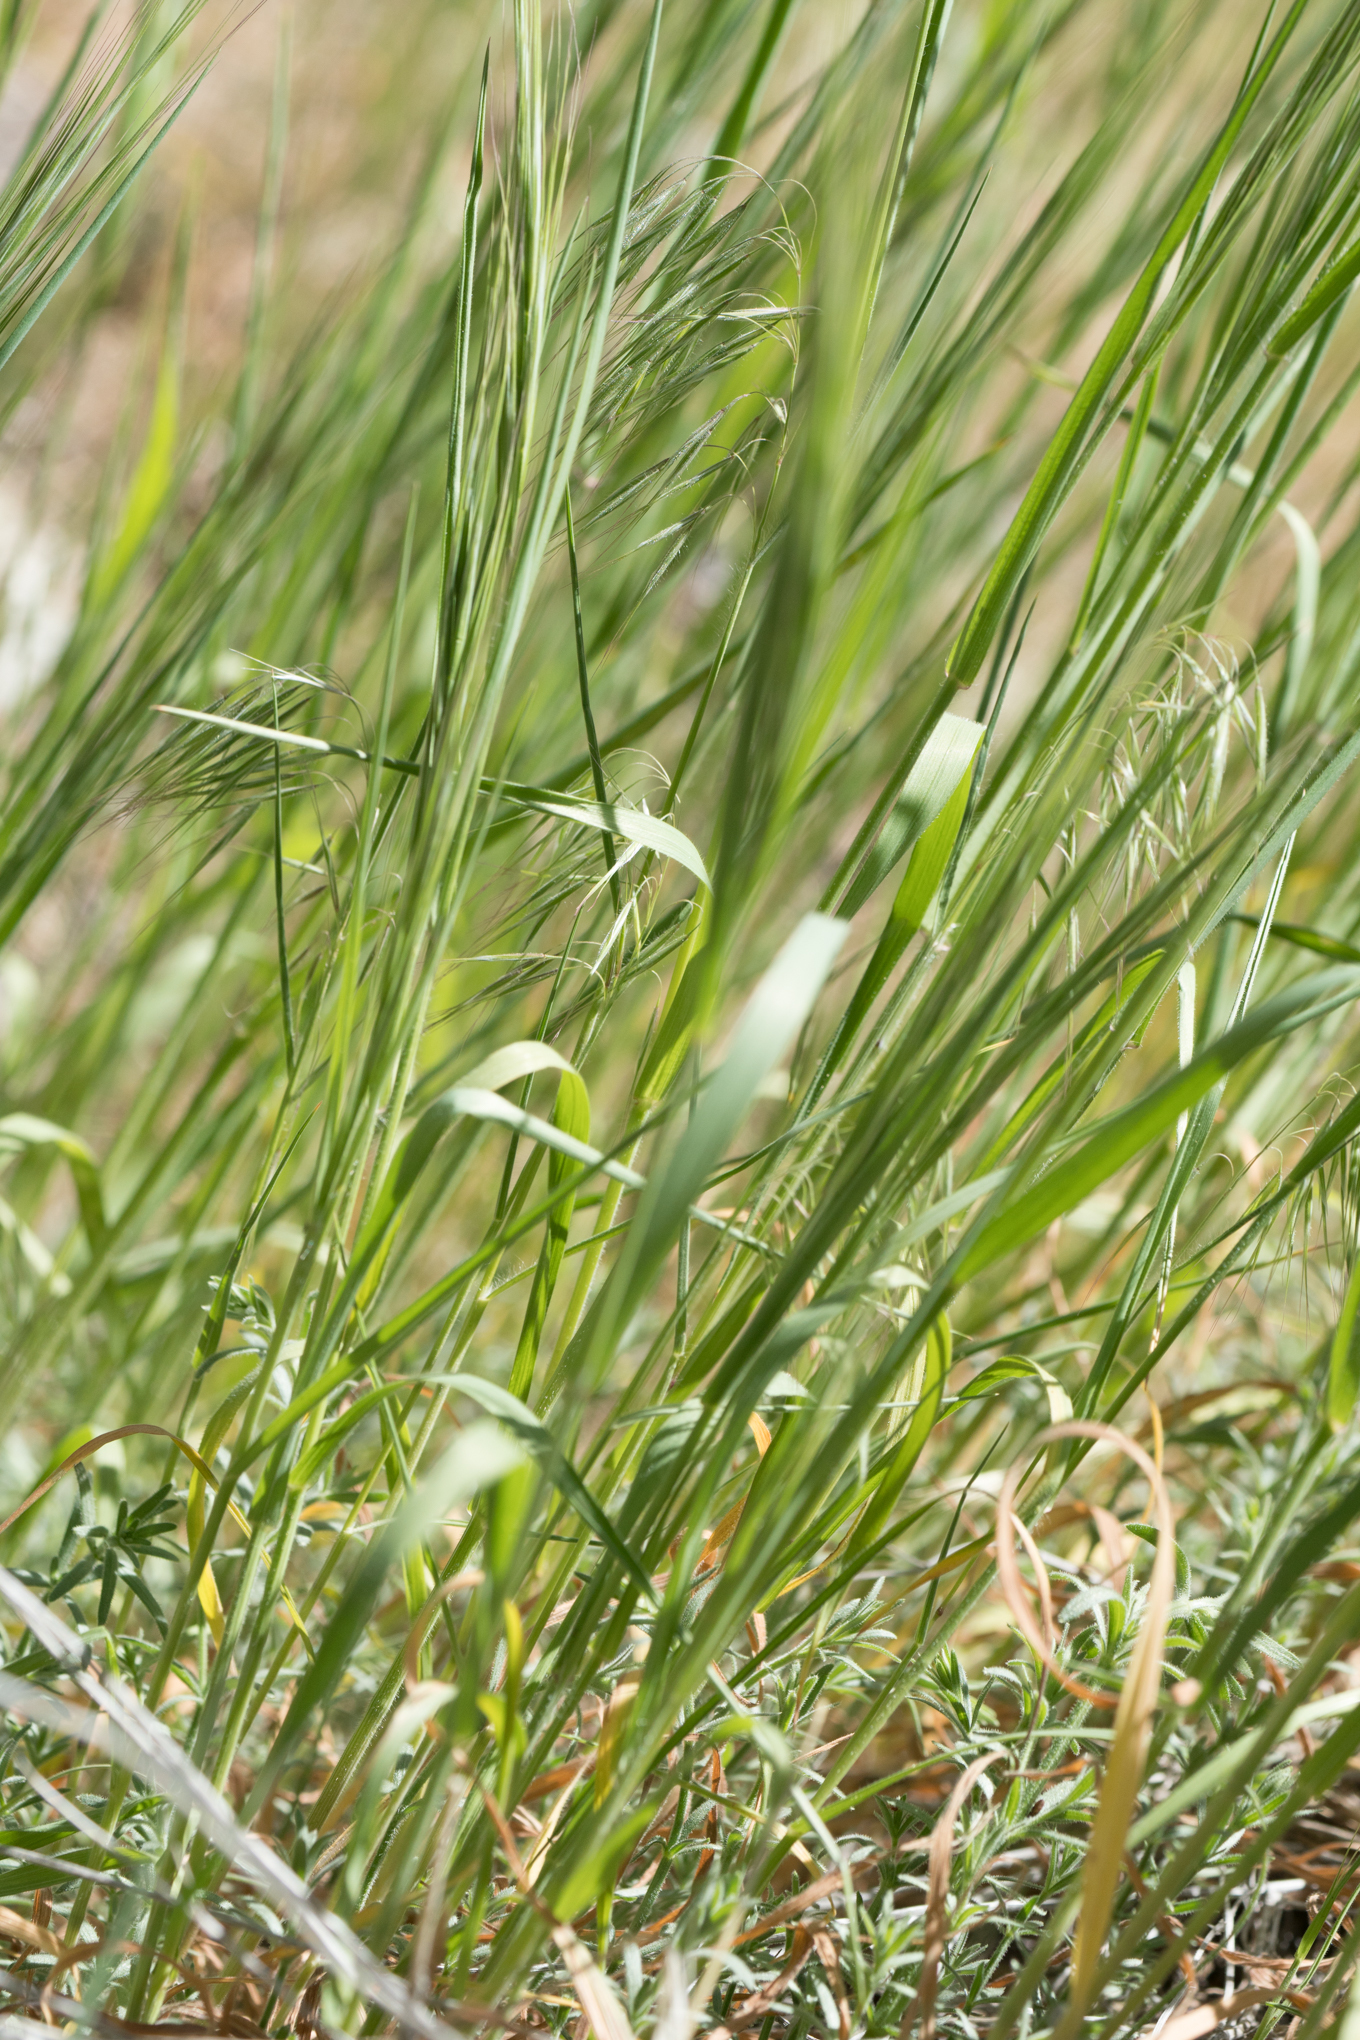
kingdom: Plantae
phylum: Tracheophyta
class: Liliopsida
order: Poales
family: Poaceae
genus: Bromus
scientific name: Bromus tectorum
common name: Cheatgrass
